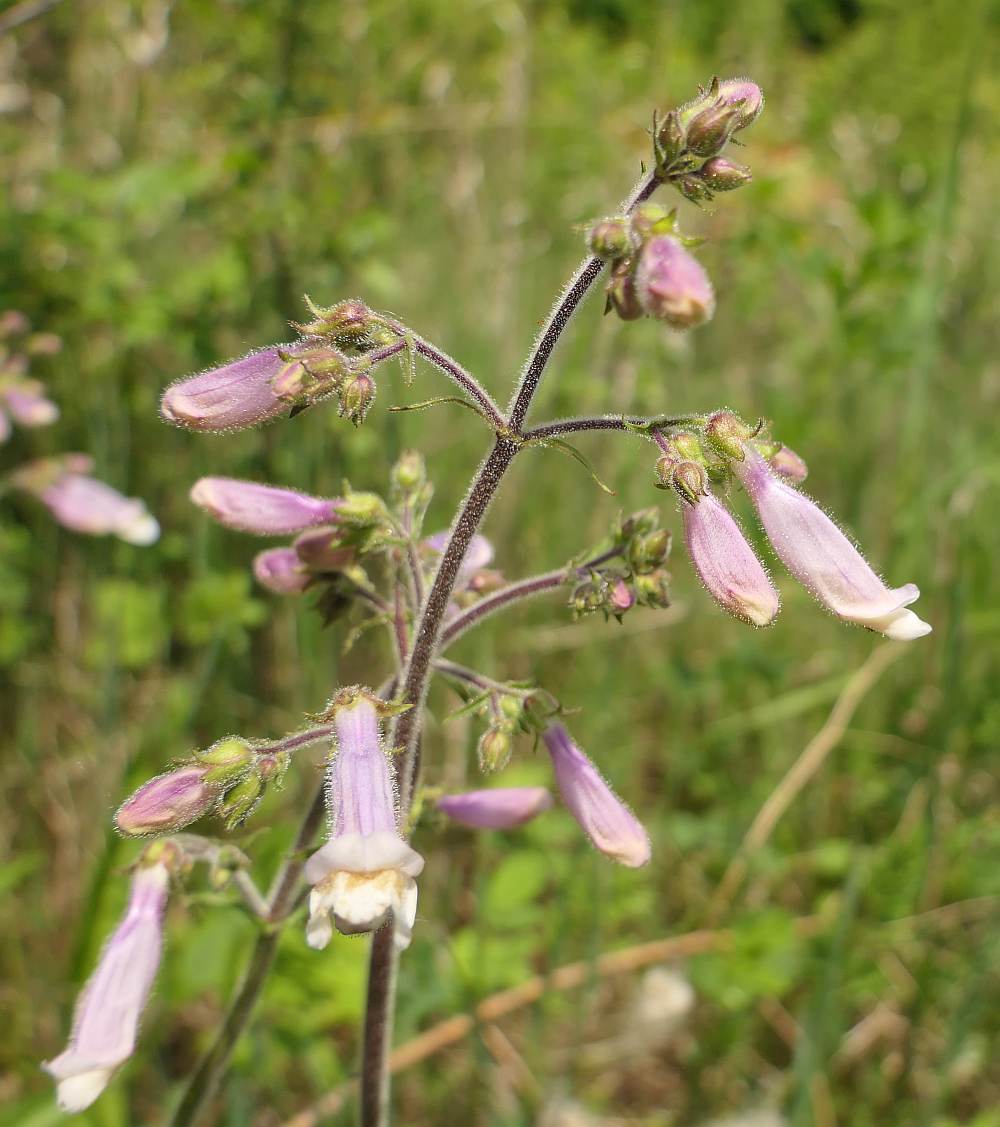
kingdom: Plantae
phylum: Tracheophyta
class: Magnoliopsida
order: Lamiales
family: Plantaginaceae
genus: Penstemon
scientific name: Penstemon hirsutus
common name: Hairy beardtongue
